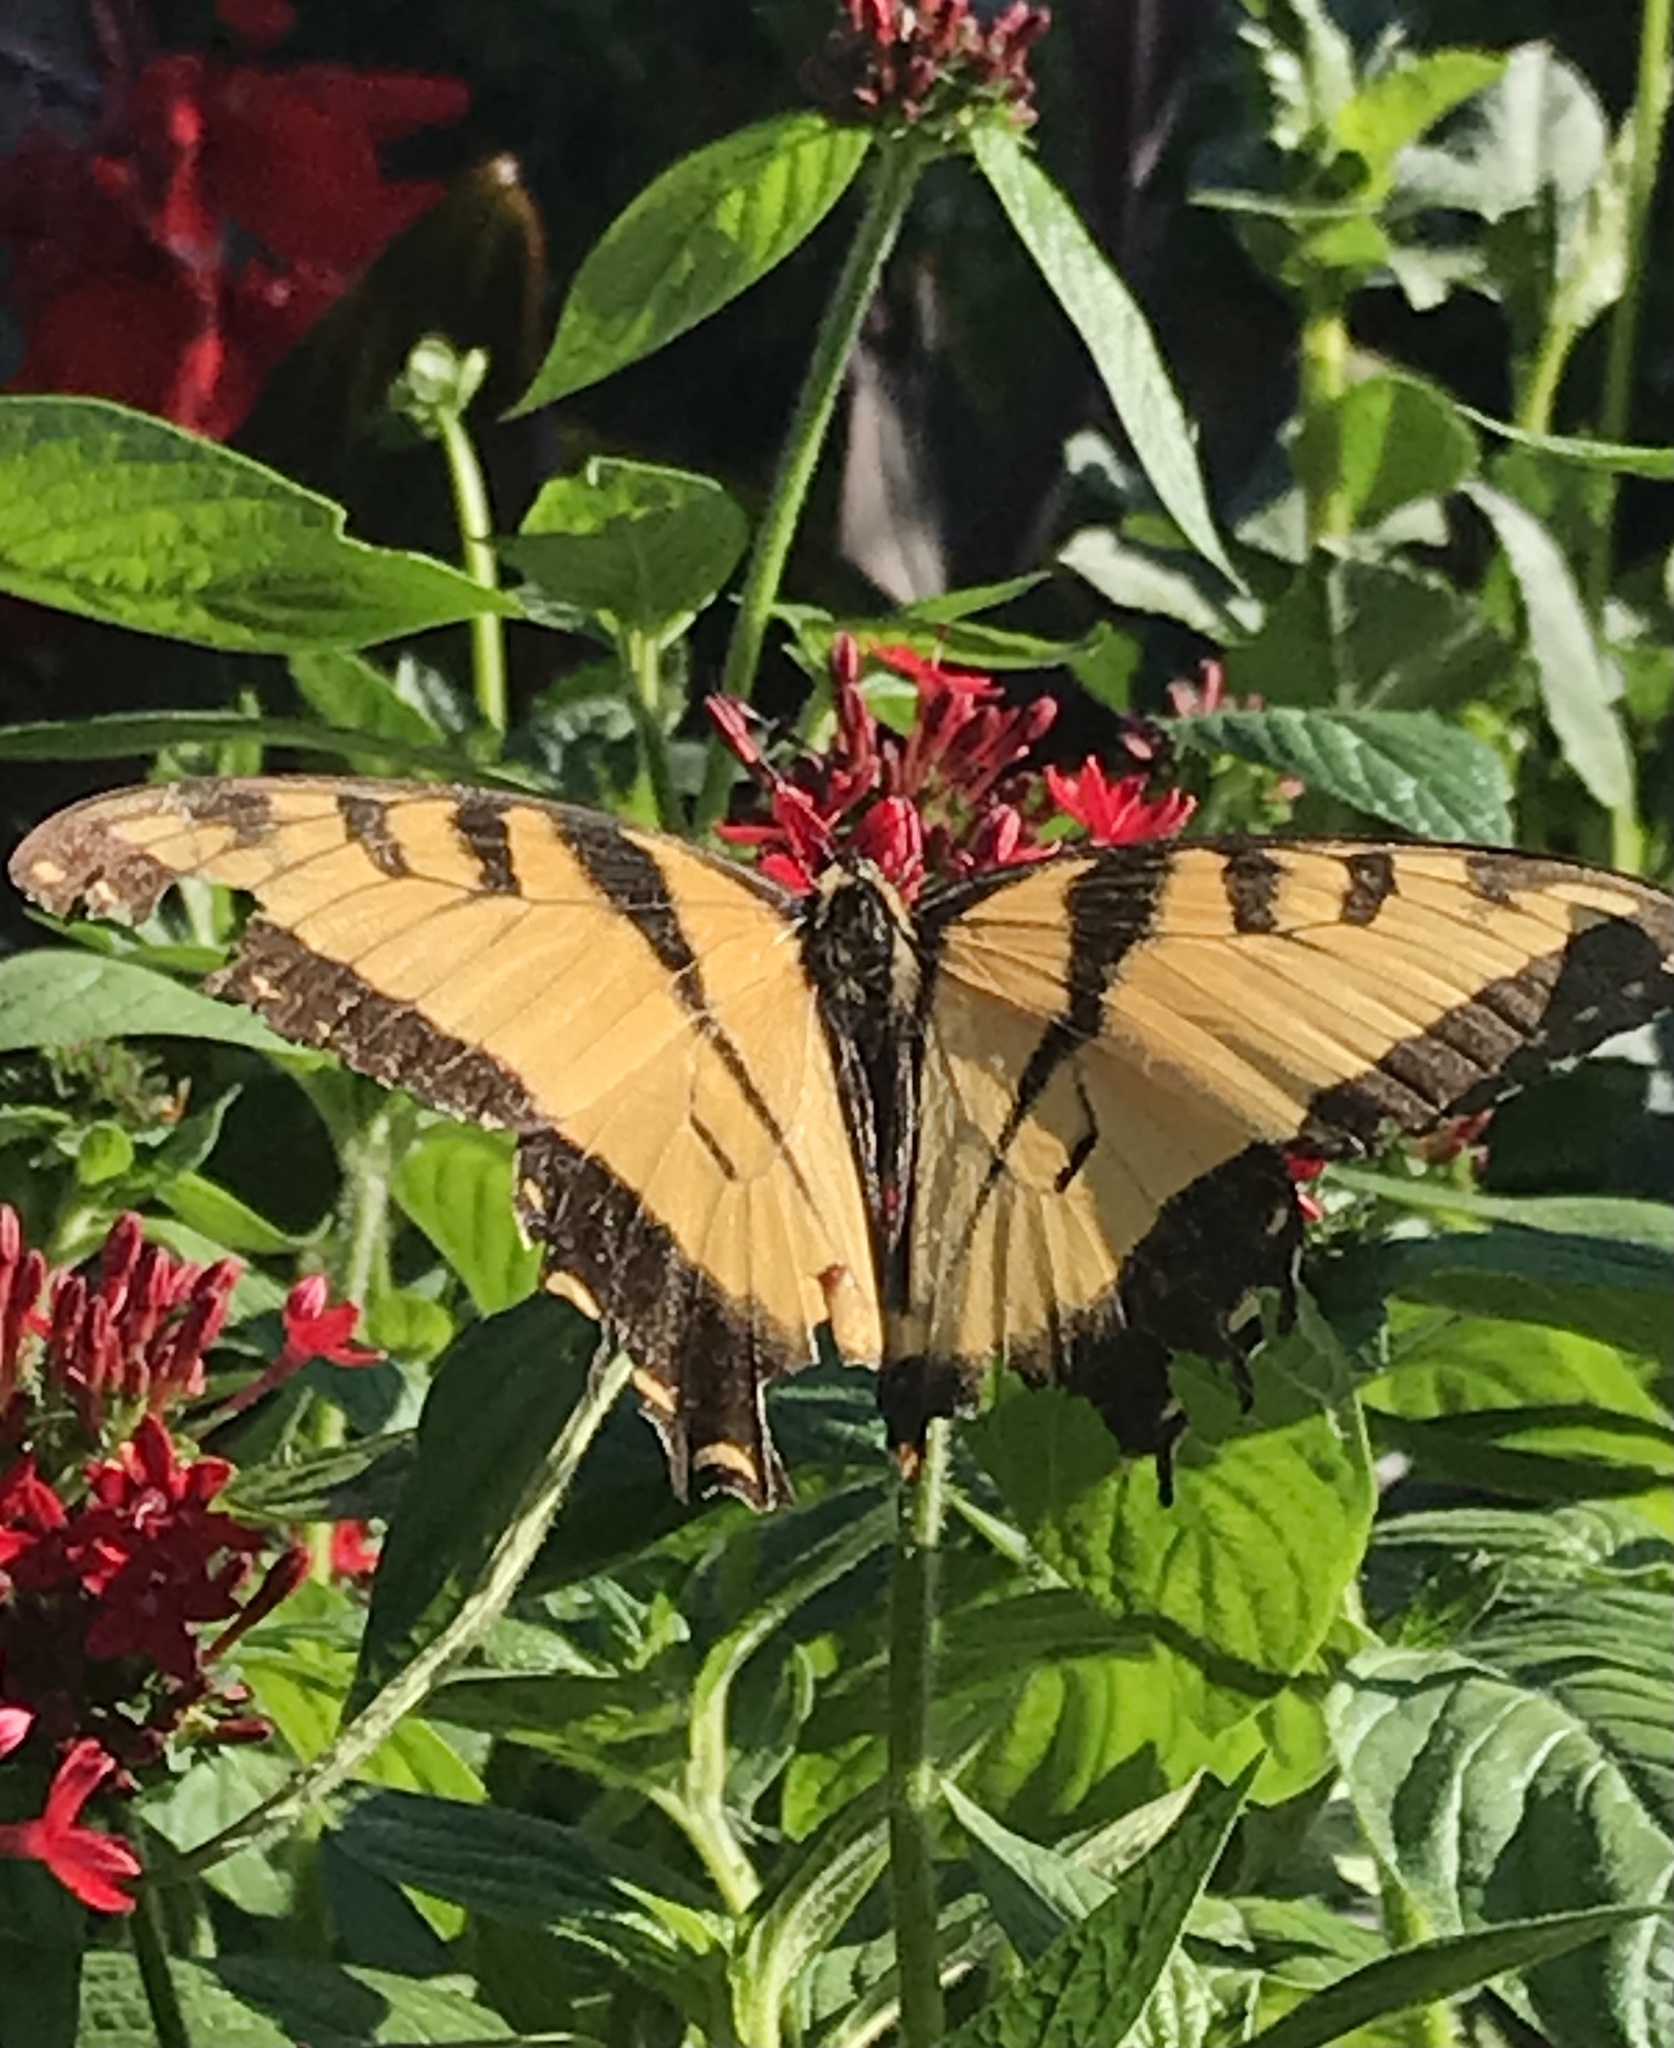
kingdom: Animalia
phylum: Arthropoda
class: Insecta
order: Lepidoptera
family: Papilionidae
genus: Papilio
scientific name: Papilio glaucus
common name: Tiger swallowtail
